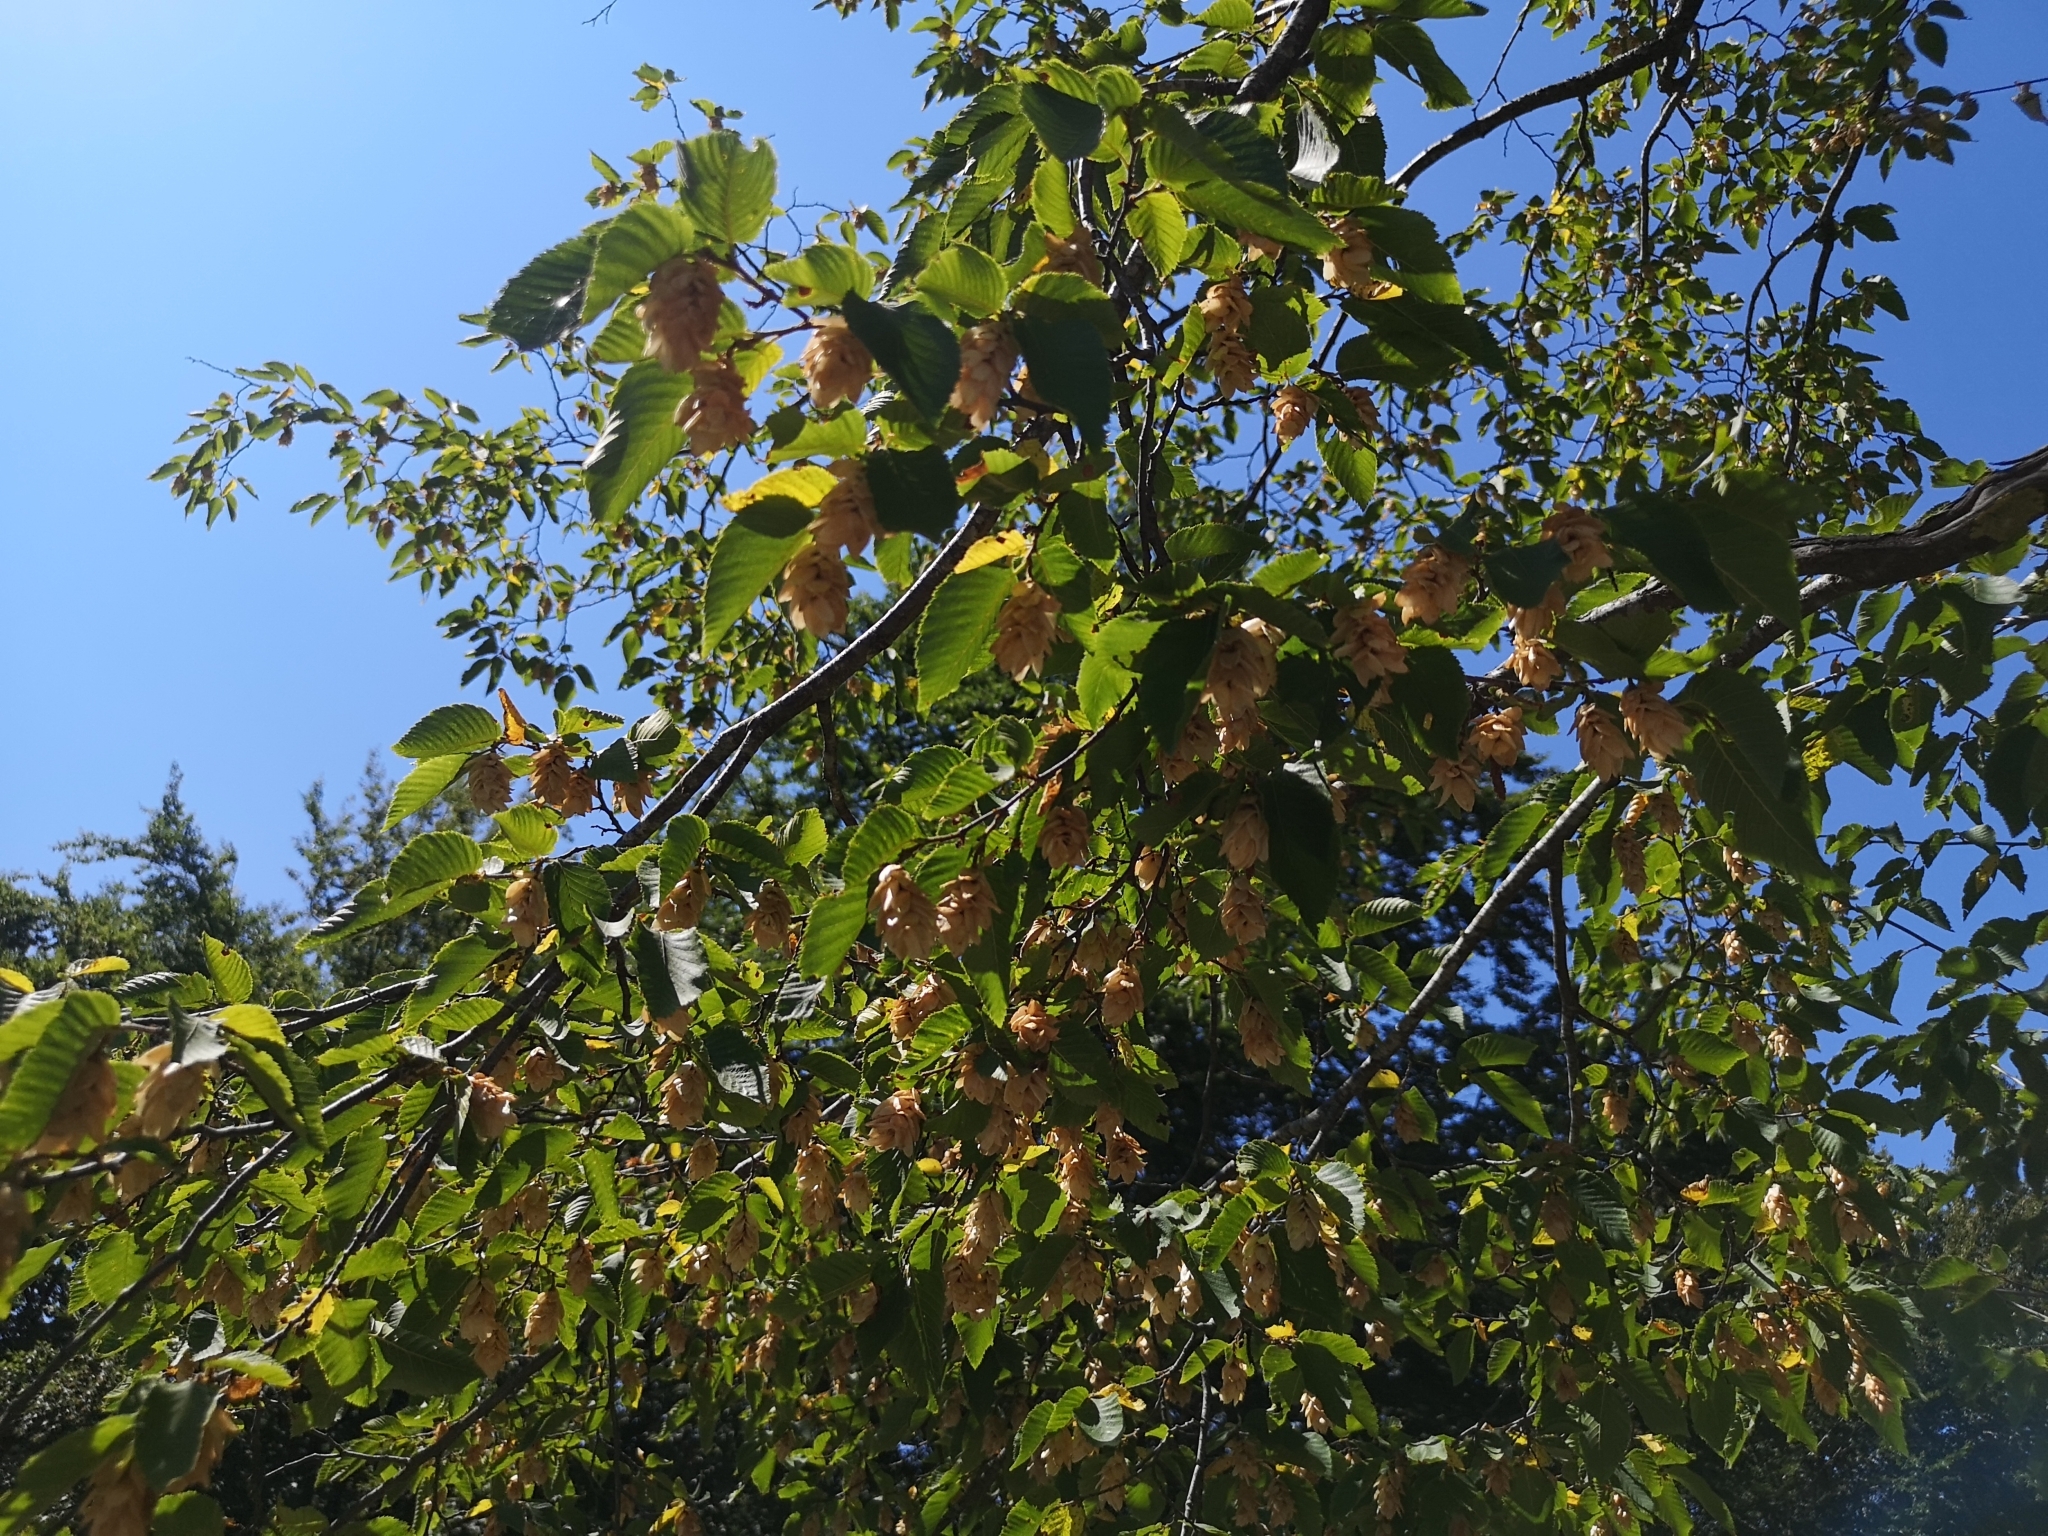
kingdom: Plantae
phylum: Tracheophyta
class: Magnoliopsida
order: Fagales
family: Betulaceae
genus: Ostrya
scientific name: Ostrya carpinifolia
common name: European hop-hornbeam
